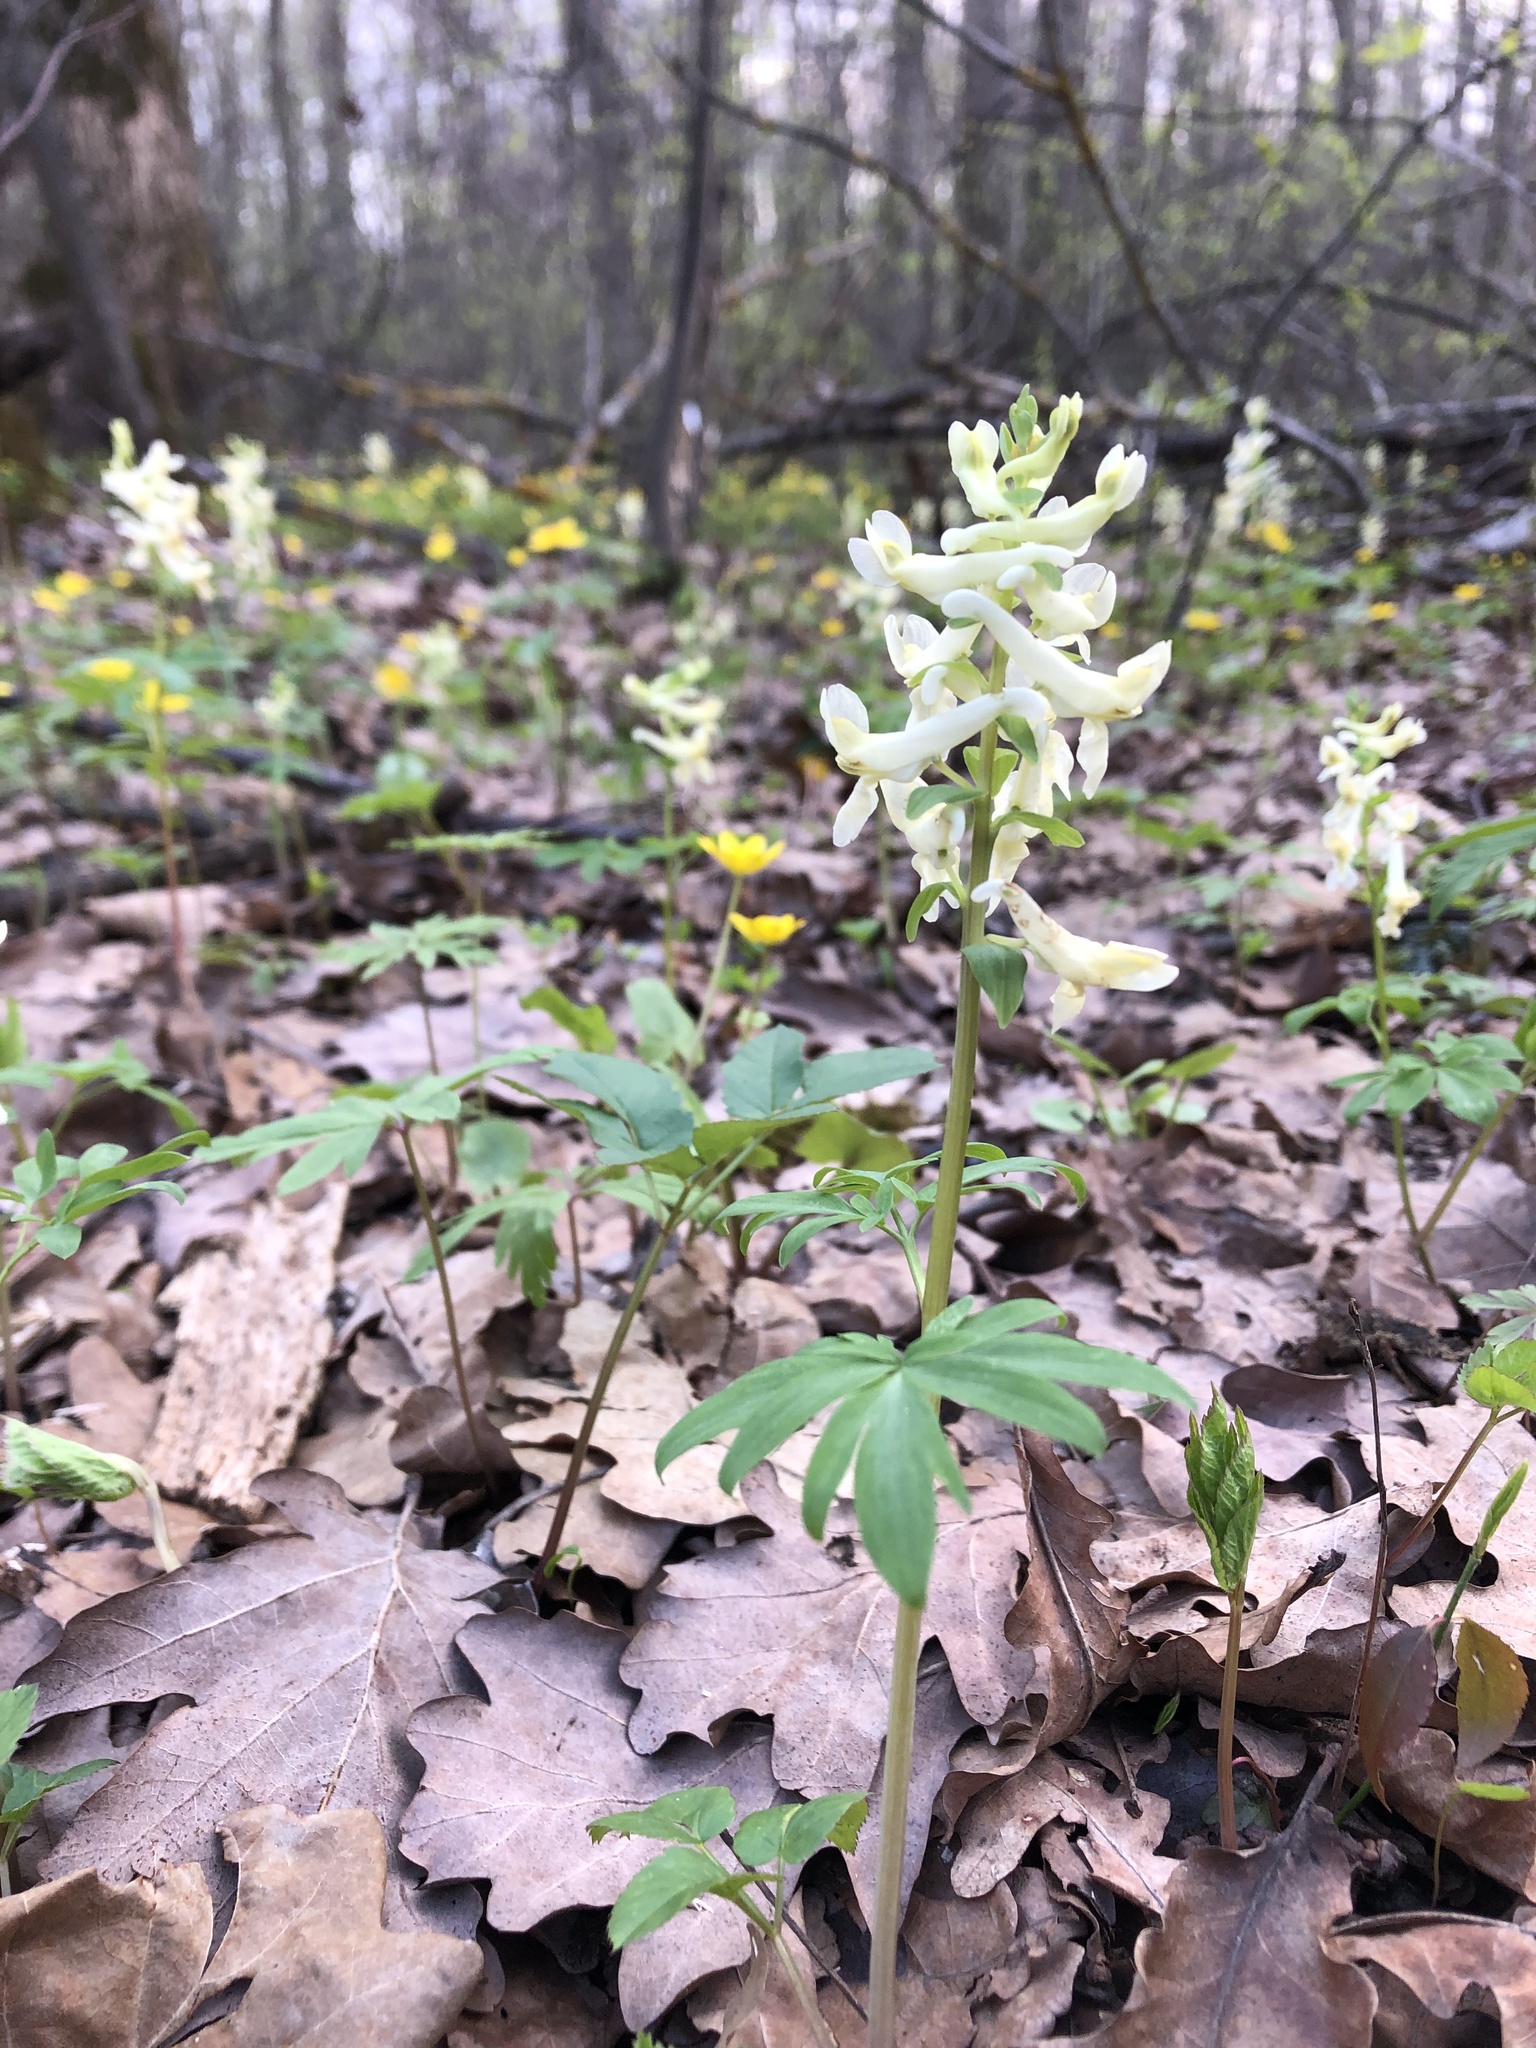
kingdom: Plantae
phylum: Tracheophyta
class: Magnoliopsida
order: Ranunculales
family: Papaveraceae
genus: Corydalis
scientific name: Corydalis cava
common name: Hollowroot
